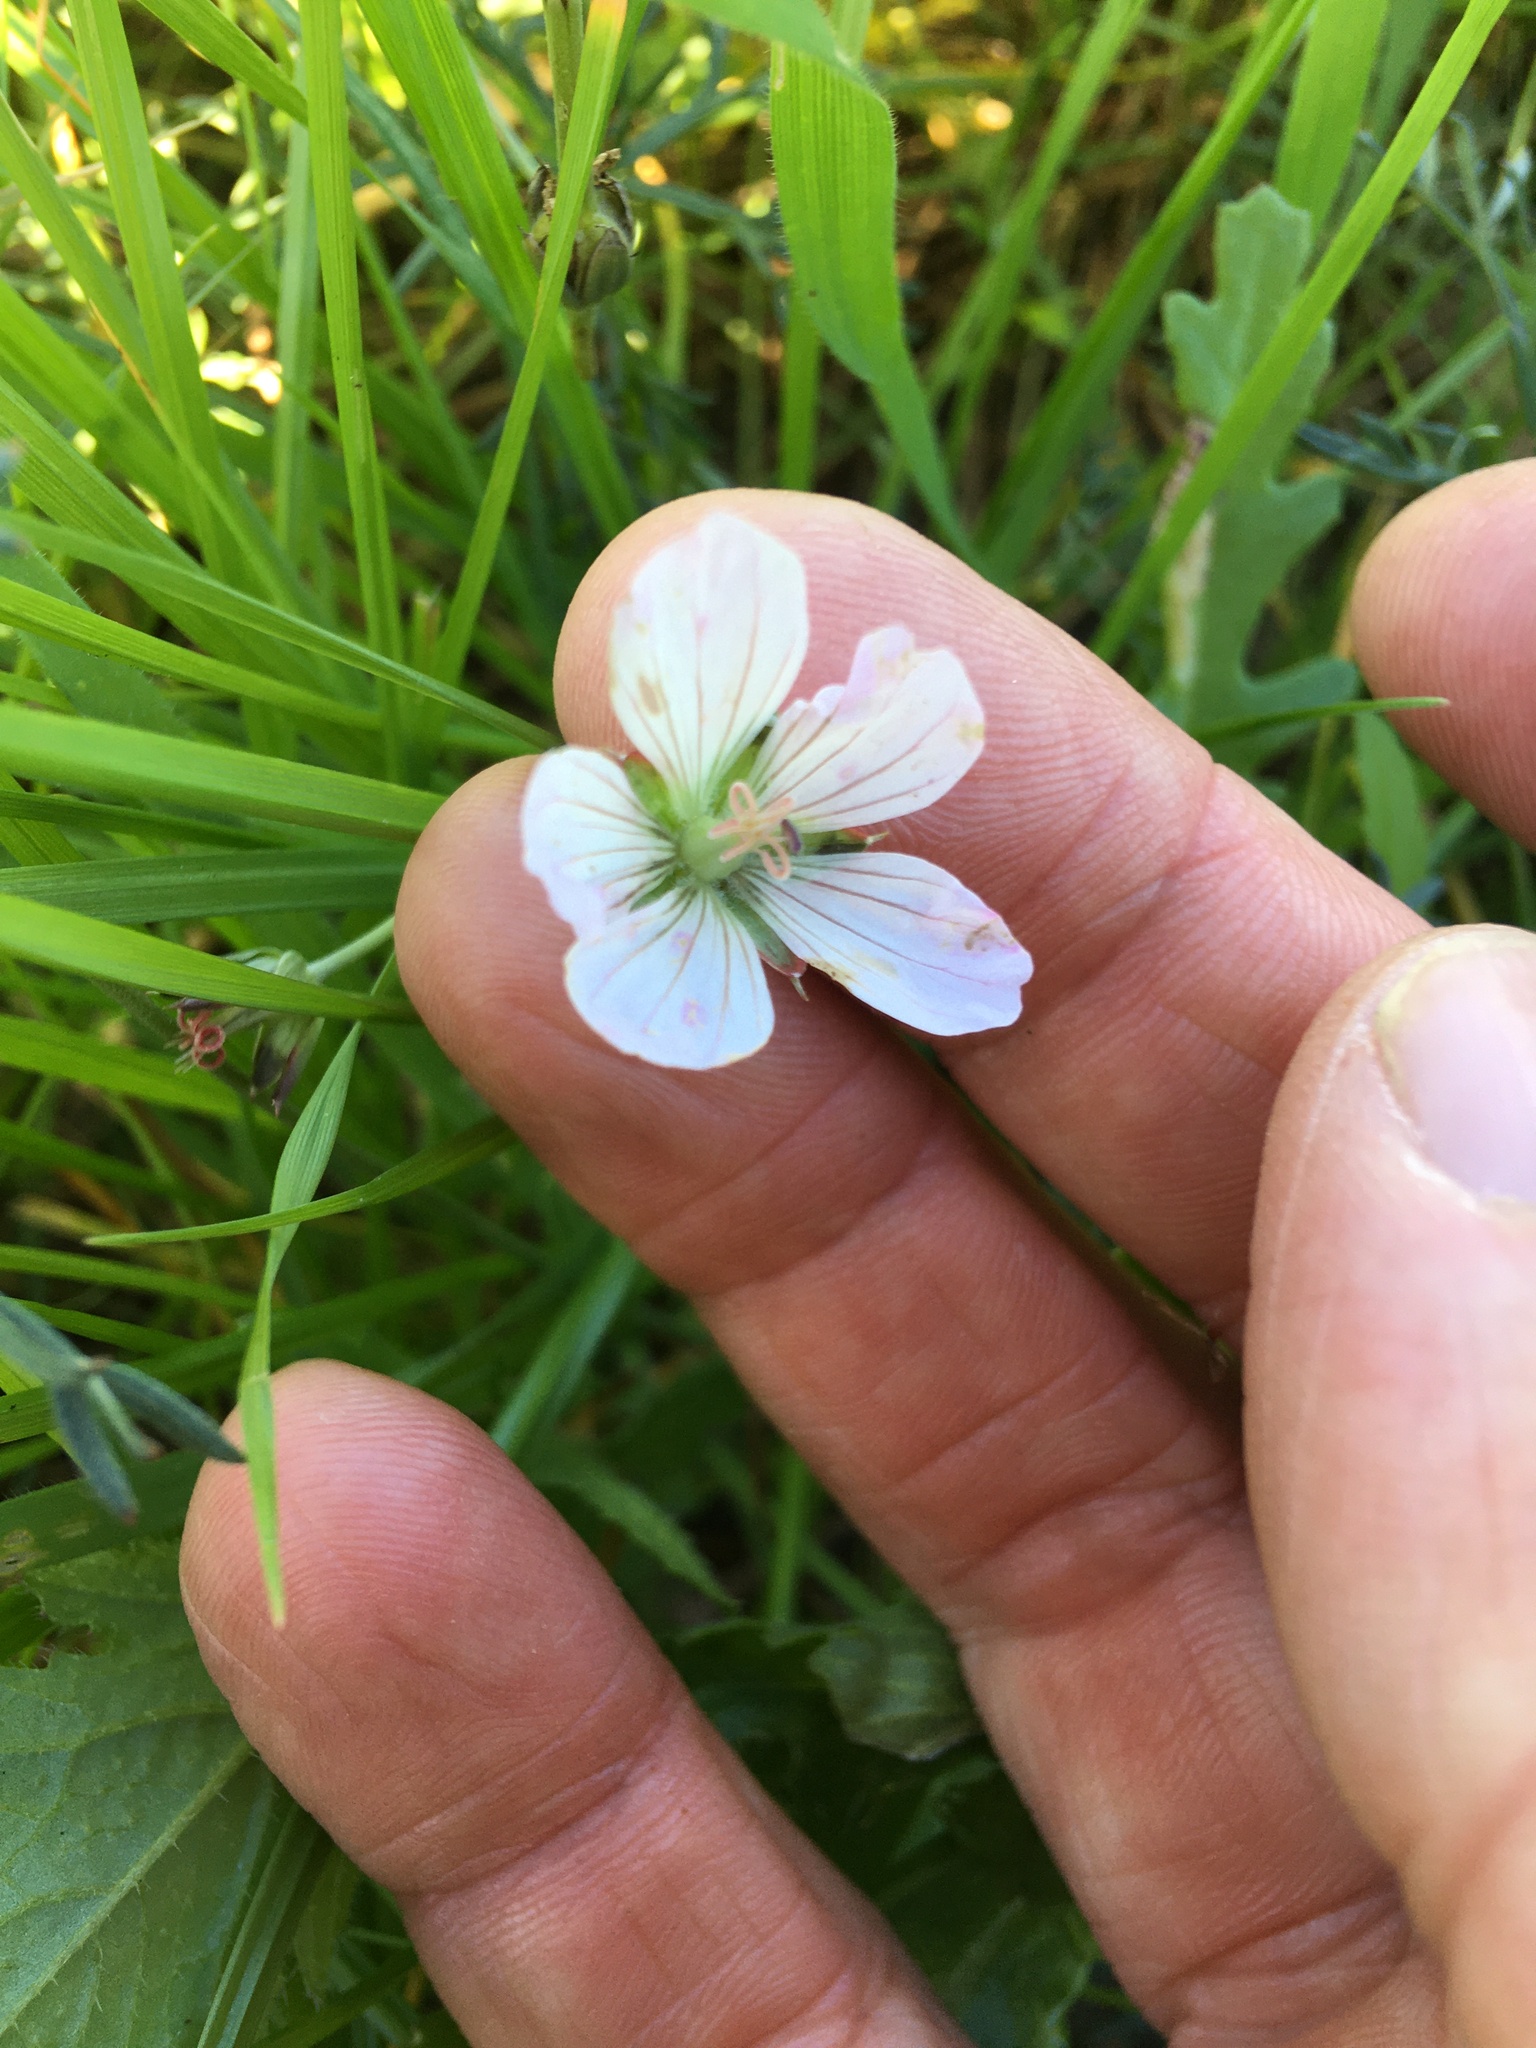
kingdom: Plantae
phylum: Tracheophyta
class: Magnoliopsida
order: Geraniales
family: Geraniaceae
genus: Geranium
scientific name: Geranium incanum
